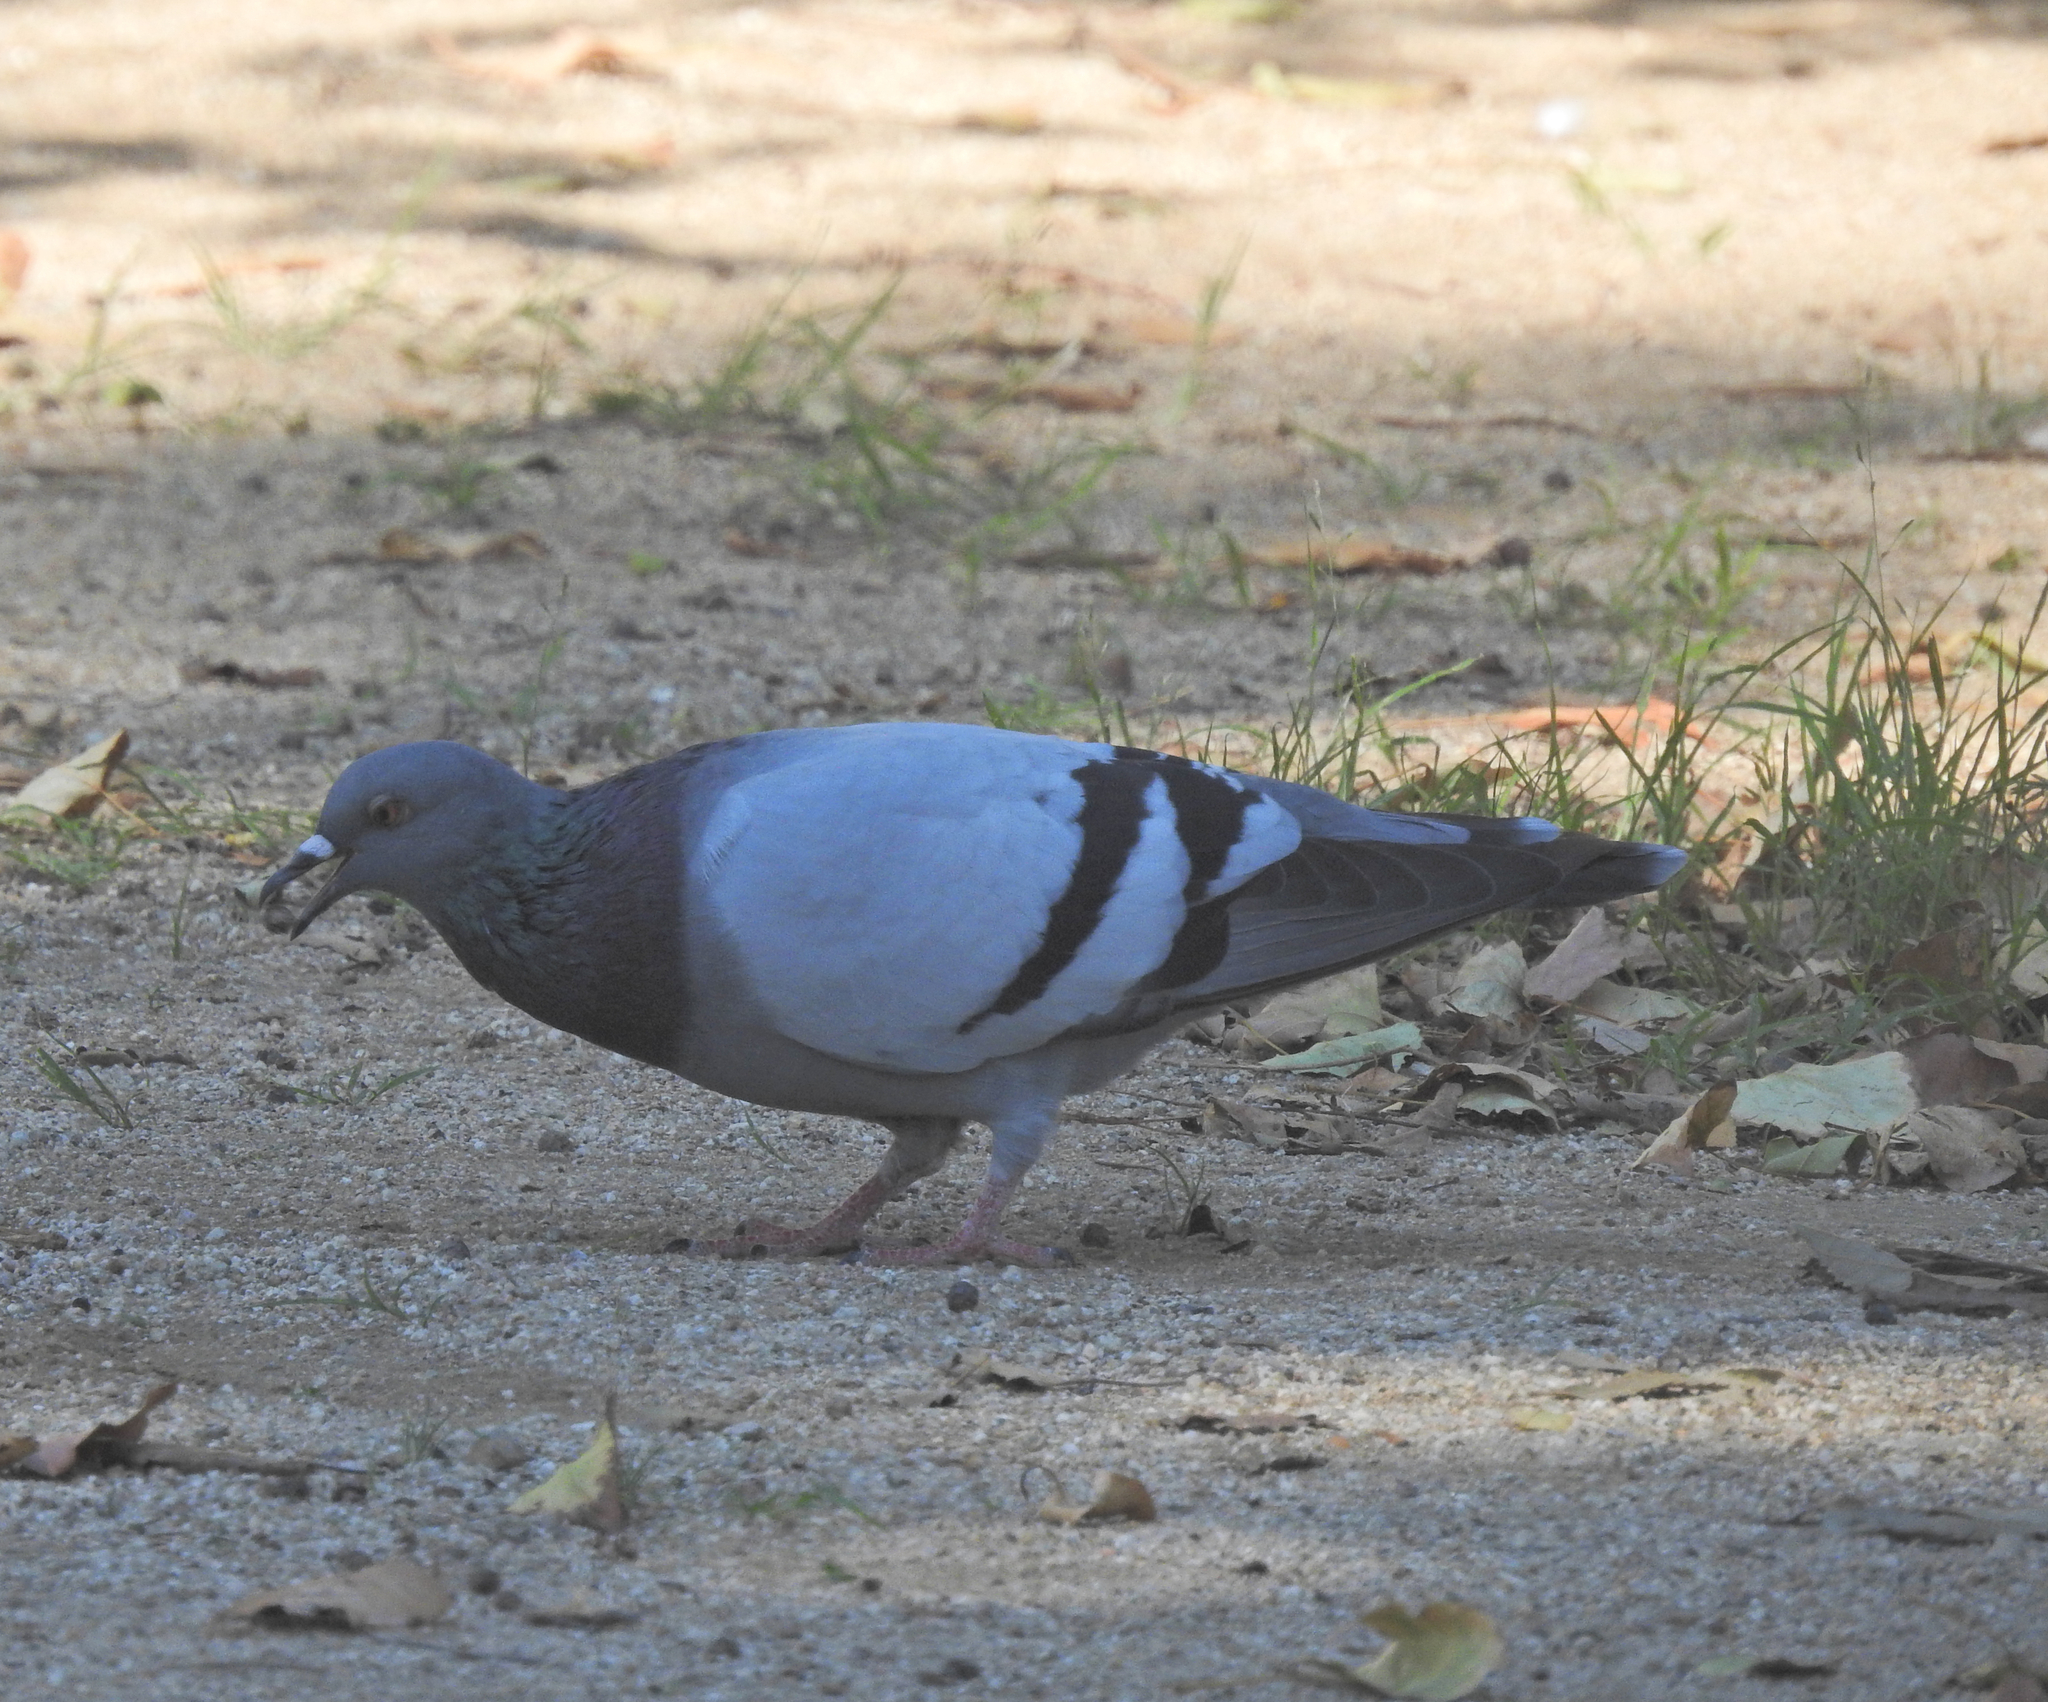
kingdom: Animalia
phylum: Chordata
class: Aves
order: Columbiformes
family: Columbidae
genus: Columba
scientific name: Columba livia
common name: Rock pigeon
